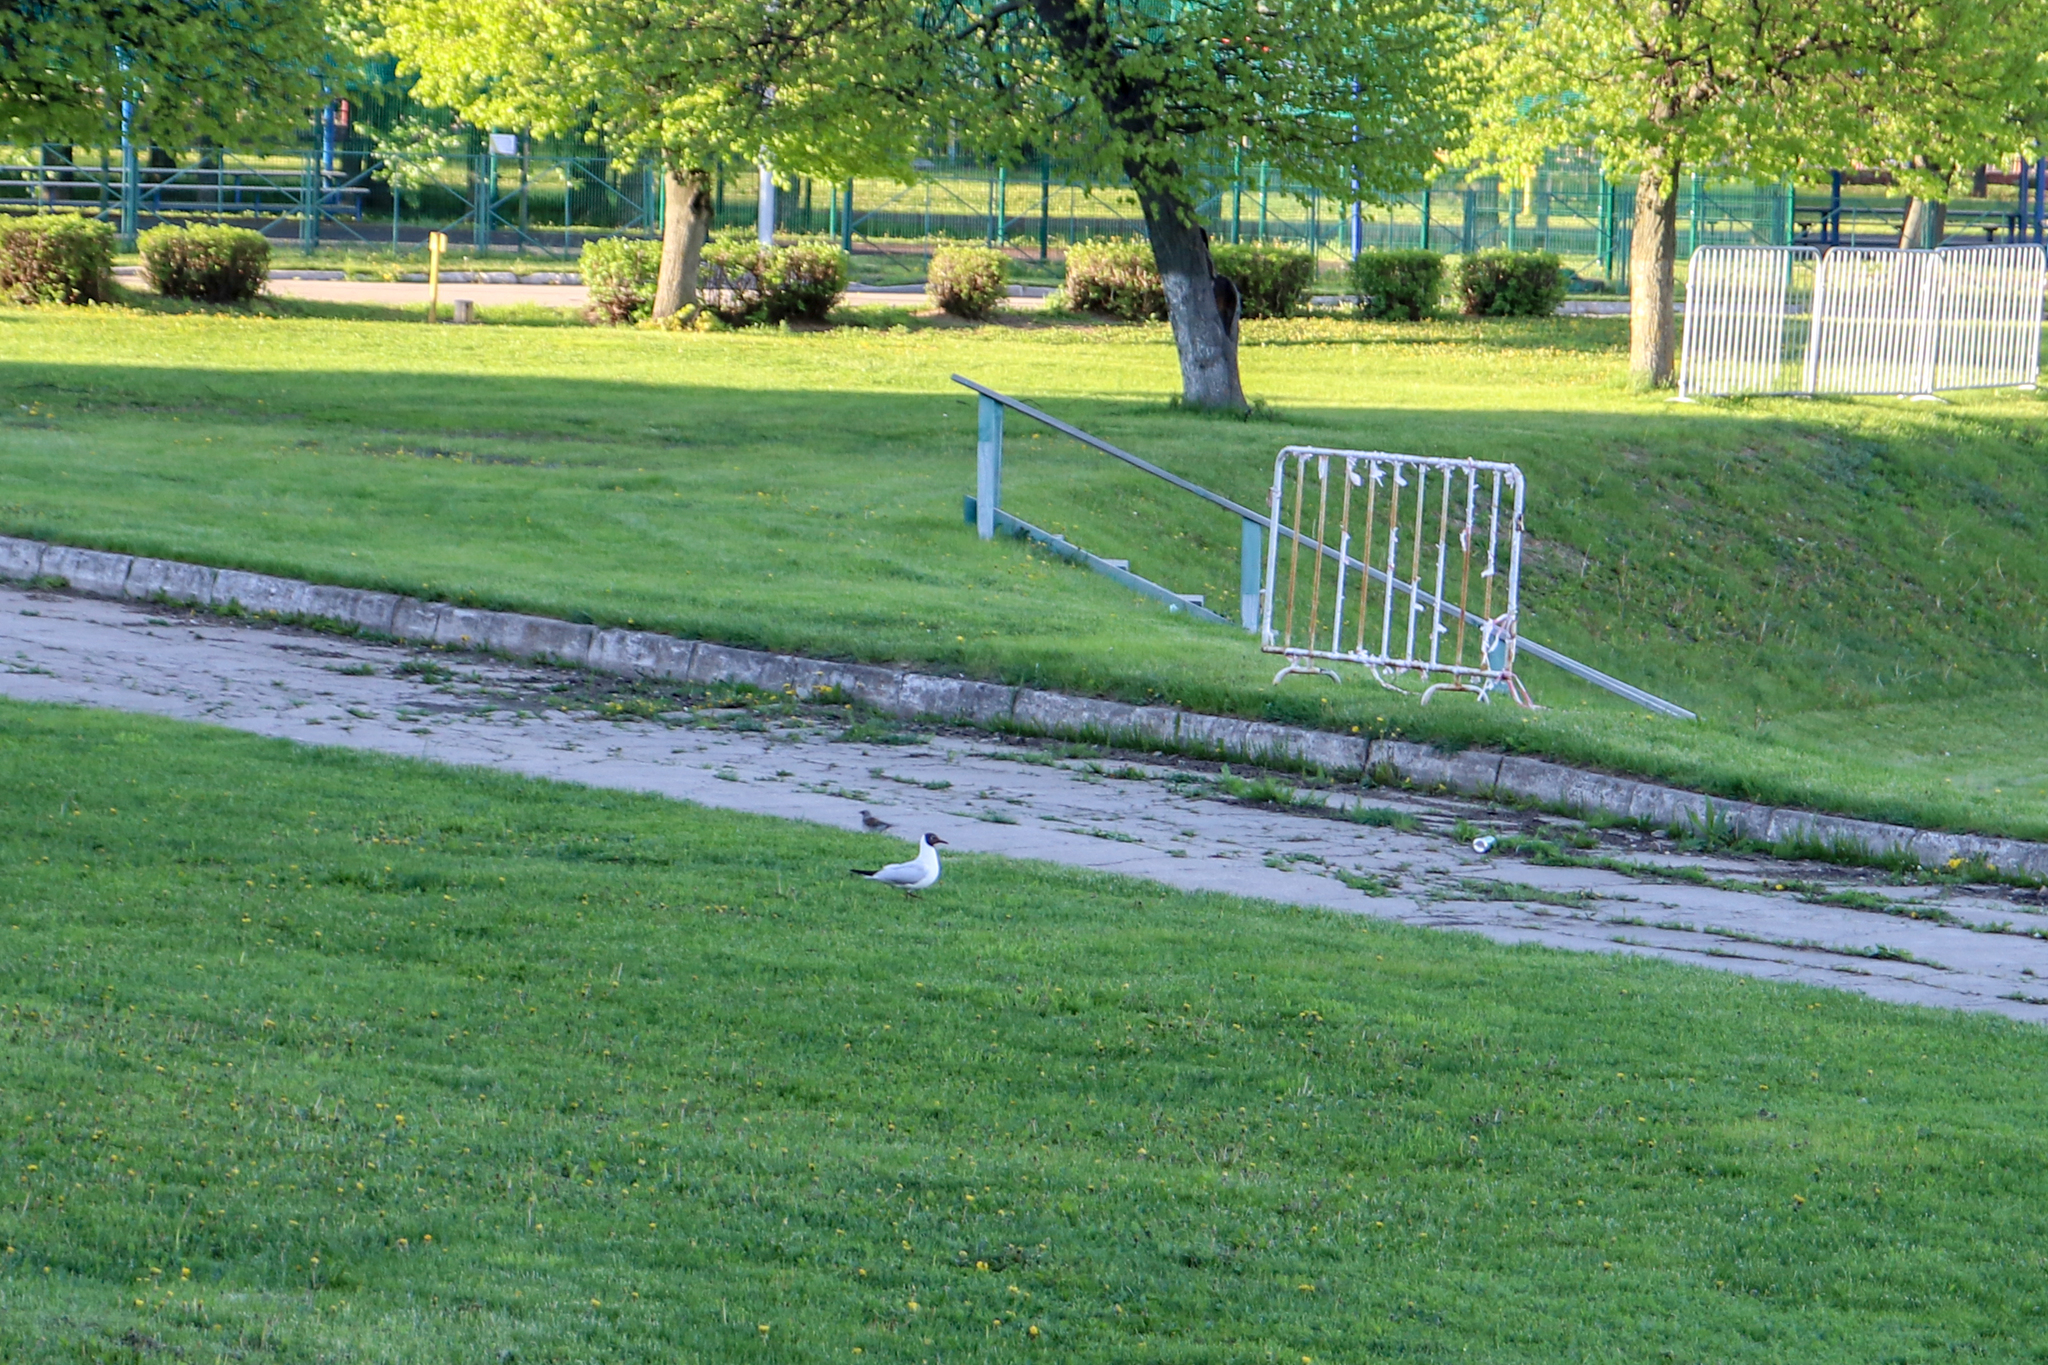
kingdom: Animalia
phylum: Chordata
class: Aves
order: Charadriiformes
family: Laridae
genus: Chroicocephalus
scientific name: Chroicocephalus ridibundus
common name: Black-headed gull
